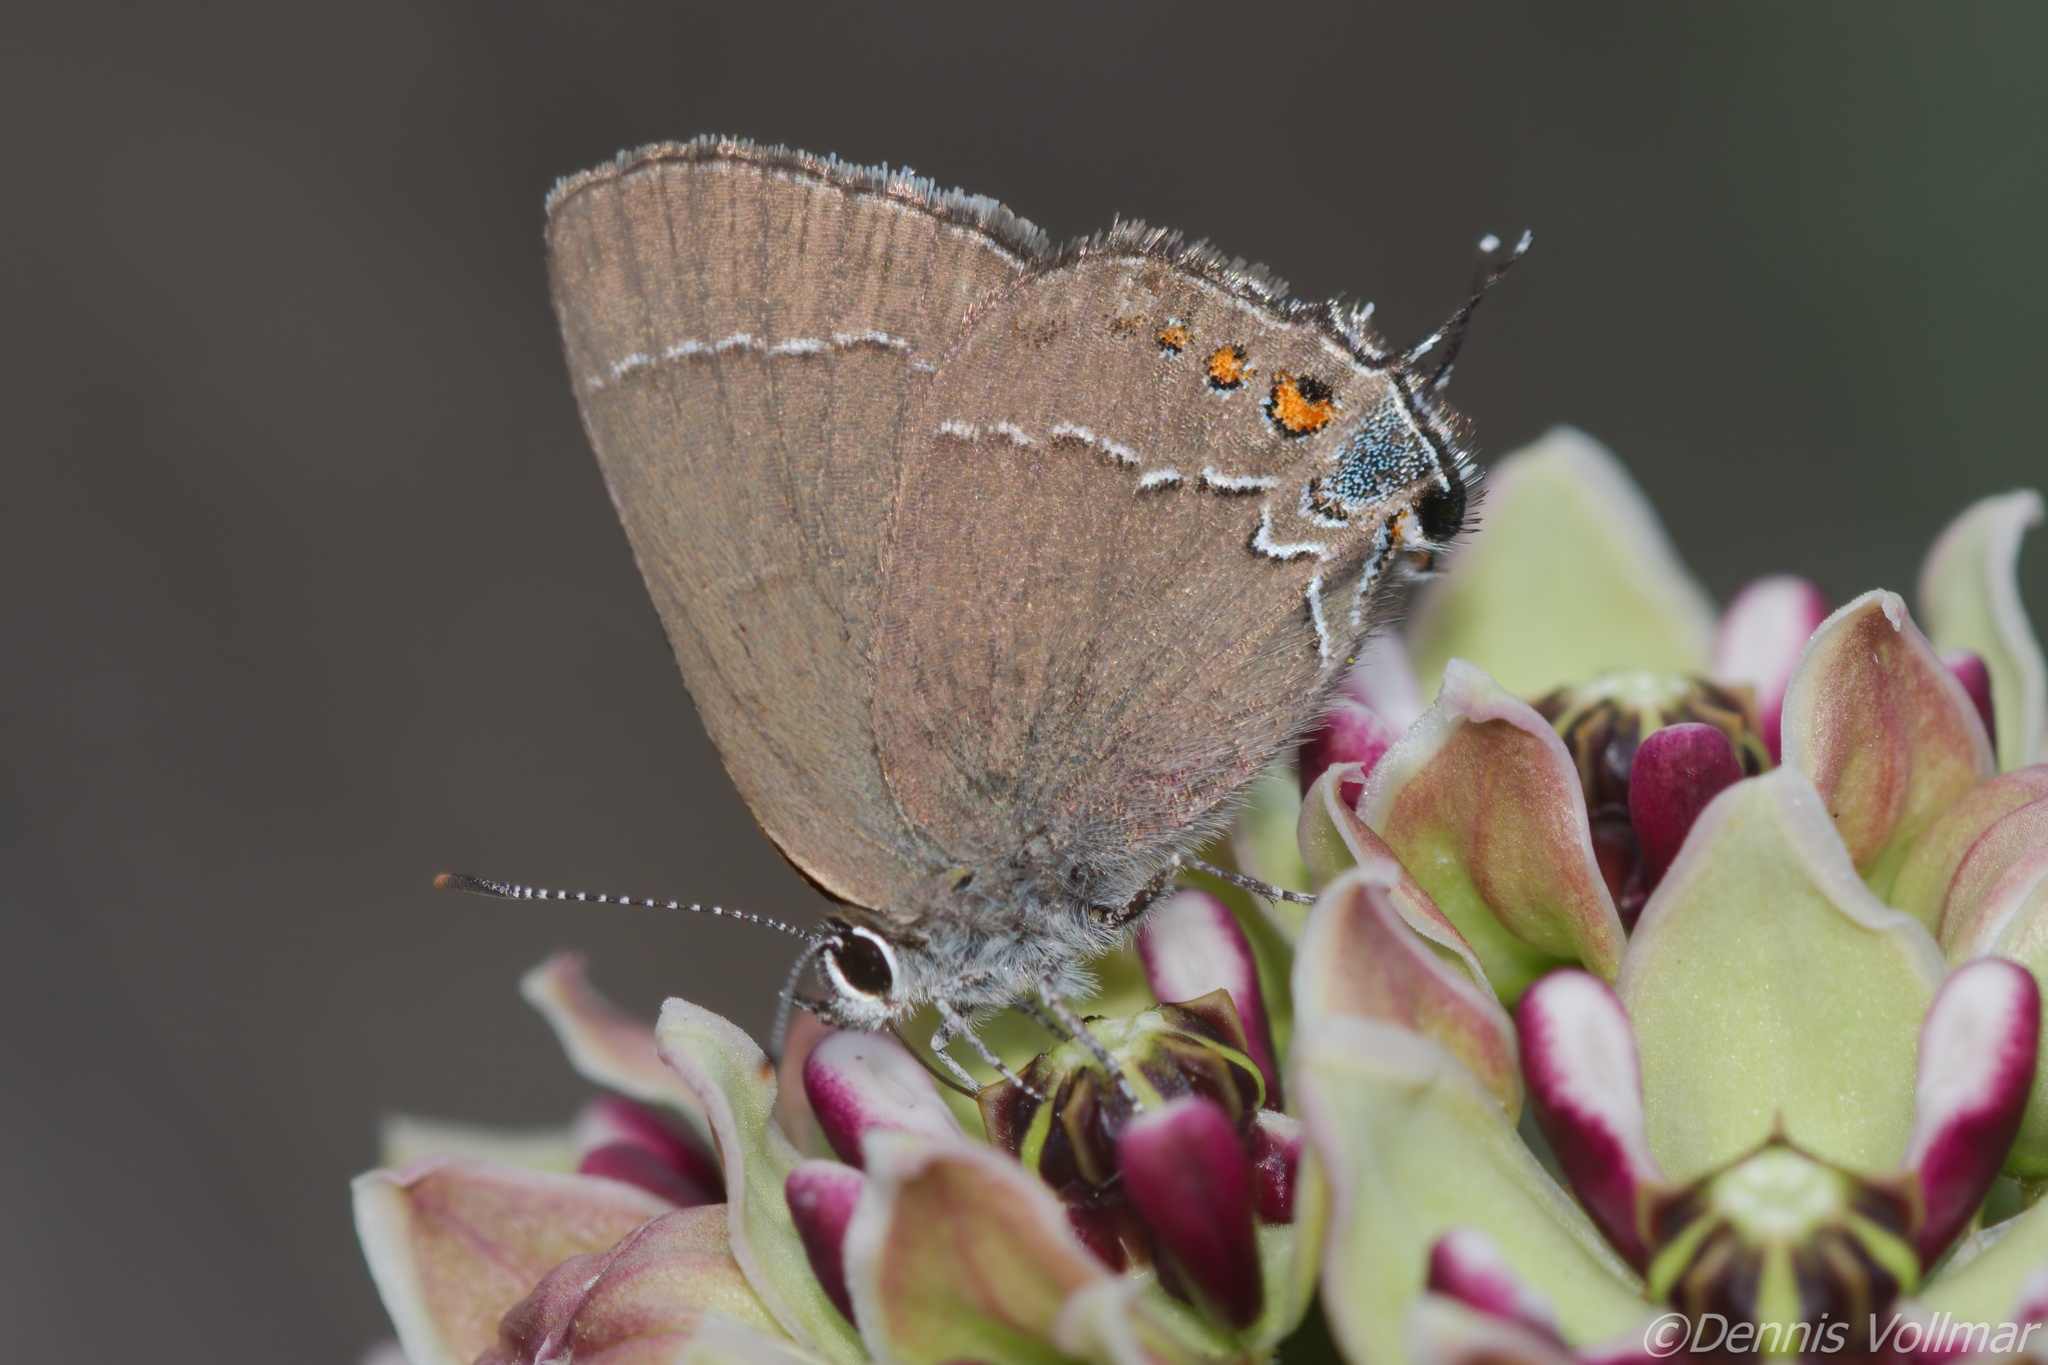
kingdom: Animalia
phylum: Arthropoda
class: Insecta
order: Lepidoptera
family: Lycaenidae
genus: Fixsenia
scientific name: Fixsenia polingi
